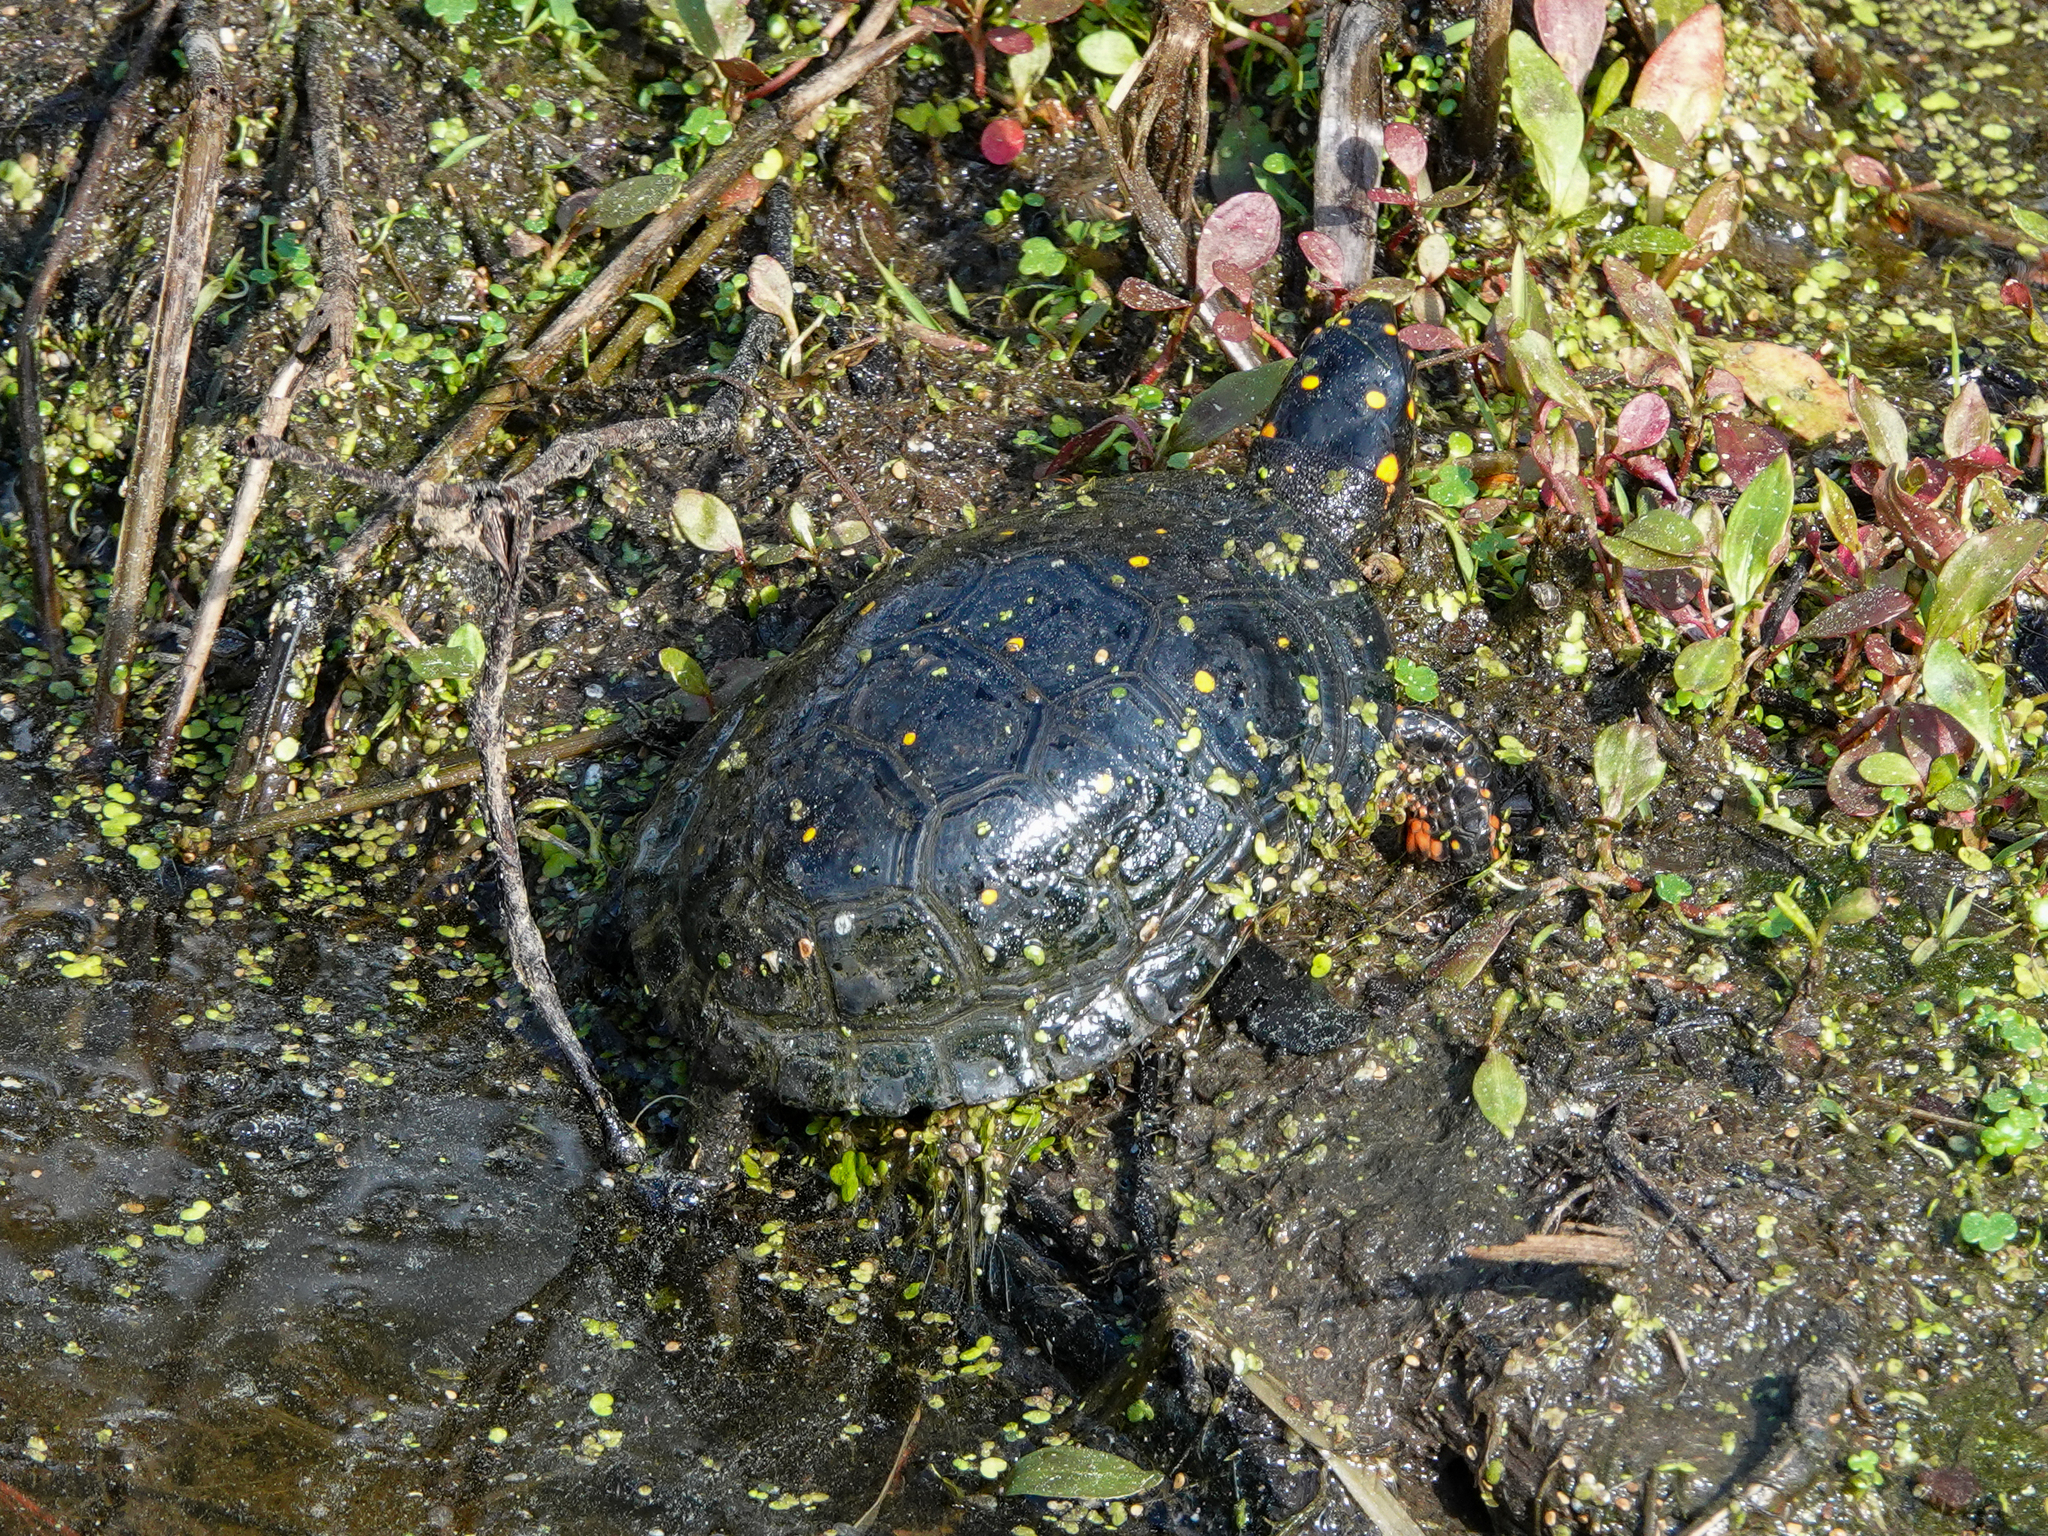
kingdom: Animalia
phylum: Chordata
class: Testudines
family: Emydidae
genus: Clemmys
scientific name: Clemmys guttata
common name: Spotted turtle
